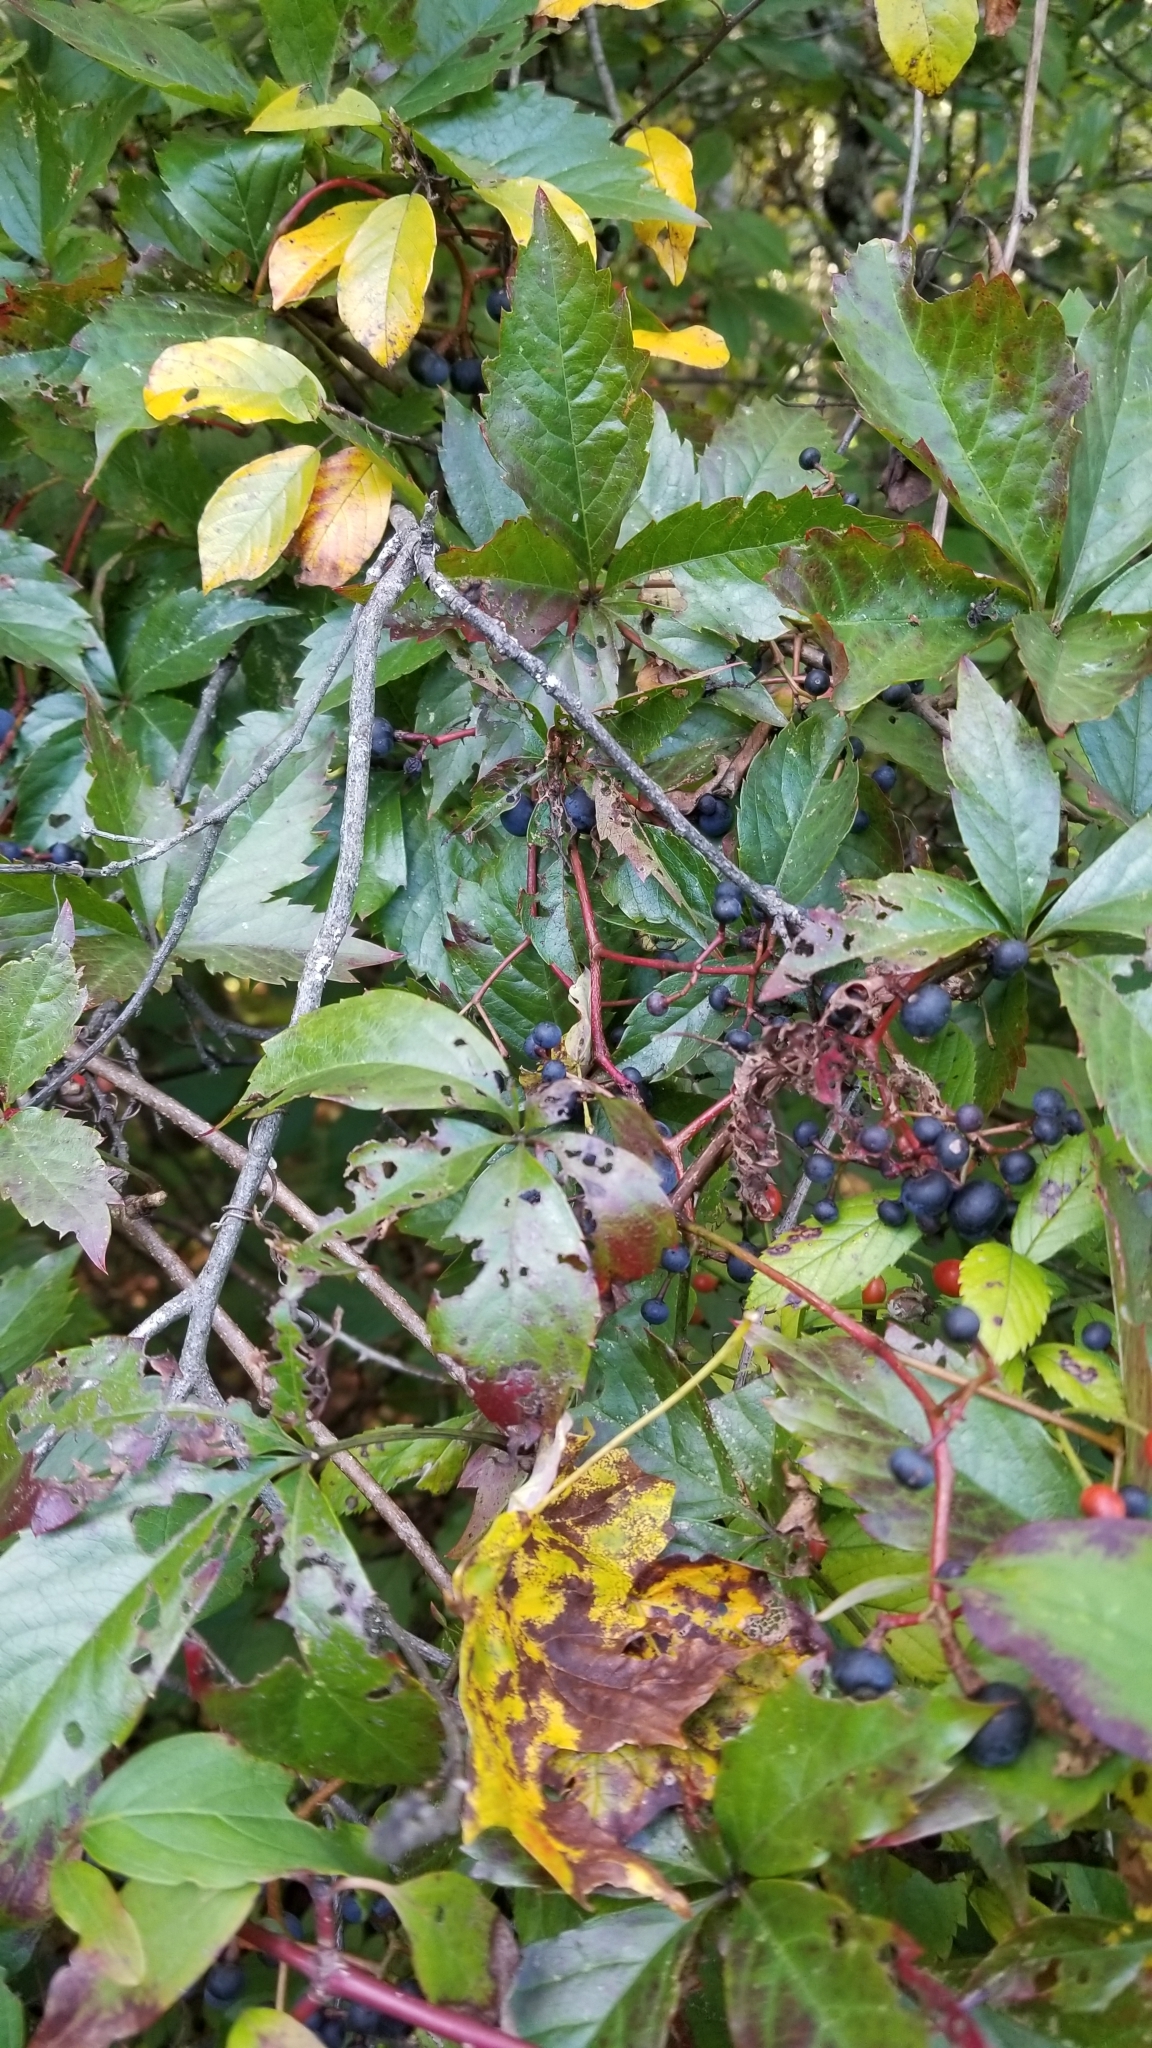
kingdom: Plantae
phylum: Tracheophyta
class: Magnoliopsida
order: Vitales
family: Vitaceae
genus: Parthenocissus
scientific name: Parthenocissus quinquefolia
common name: Virginia-creeper
